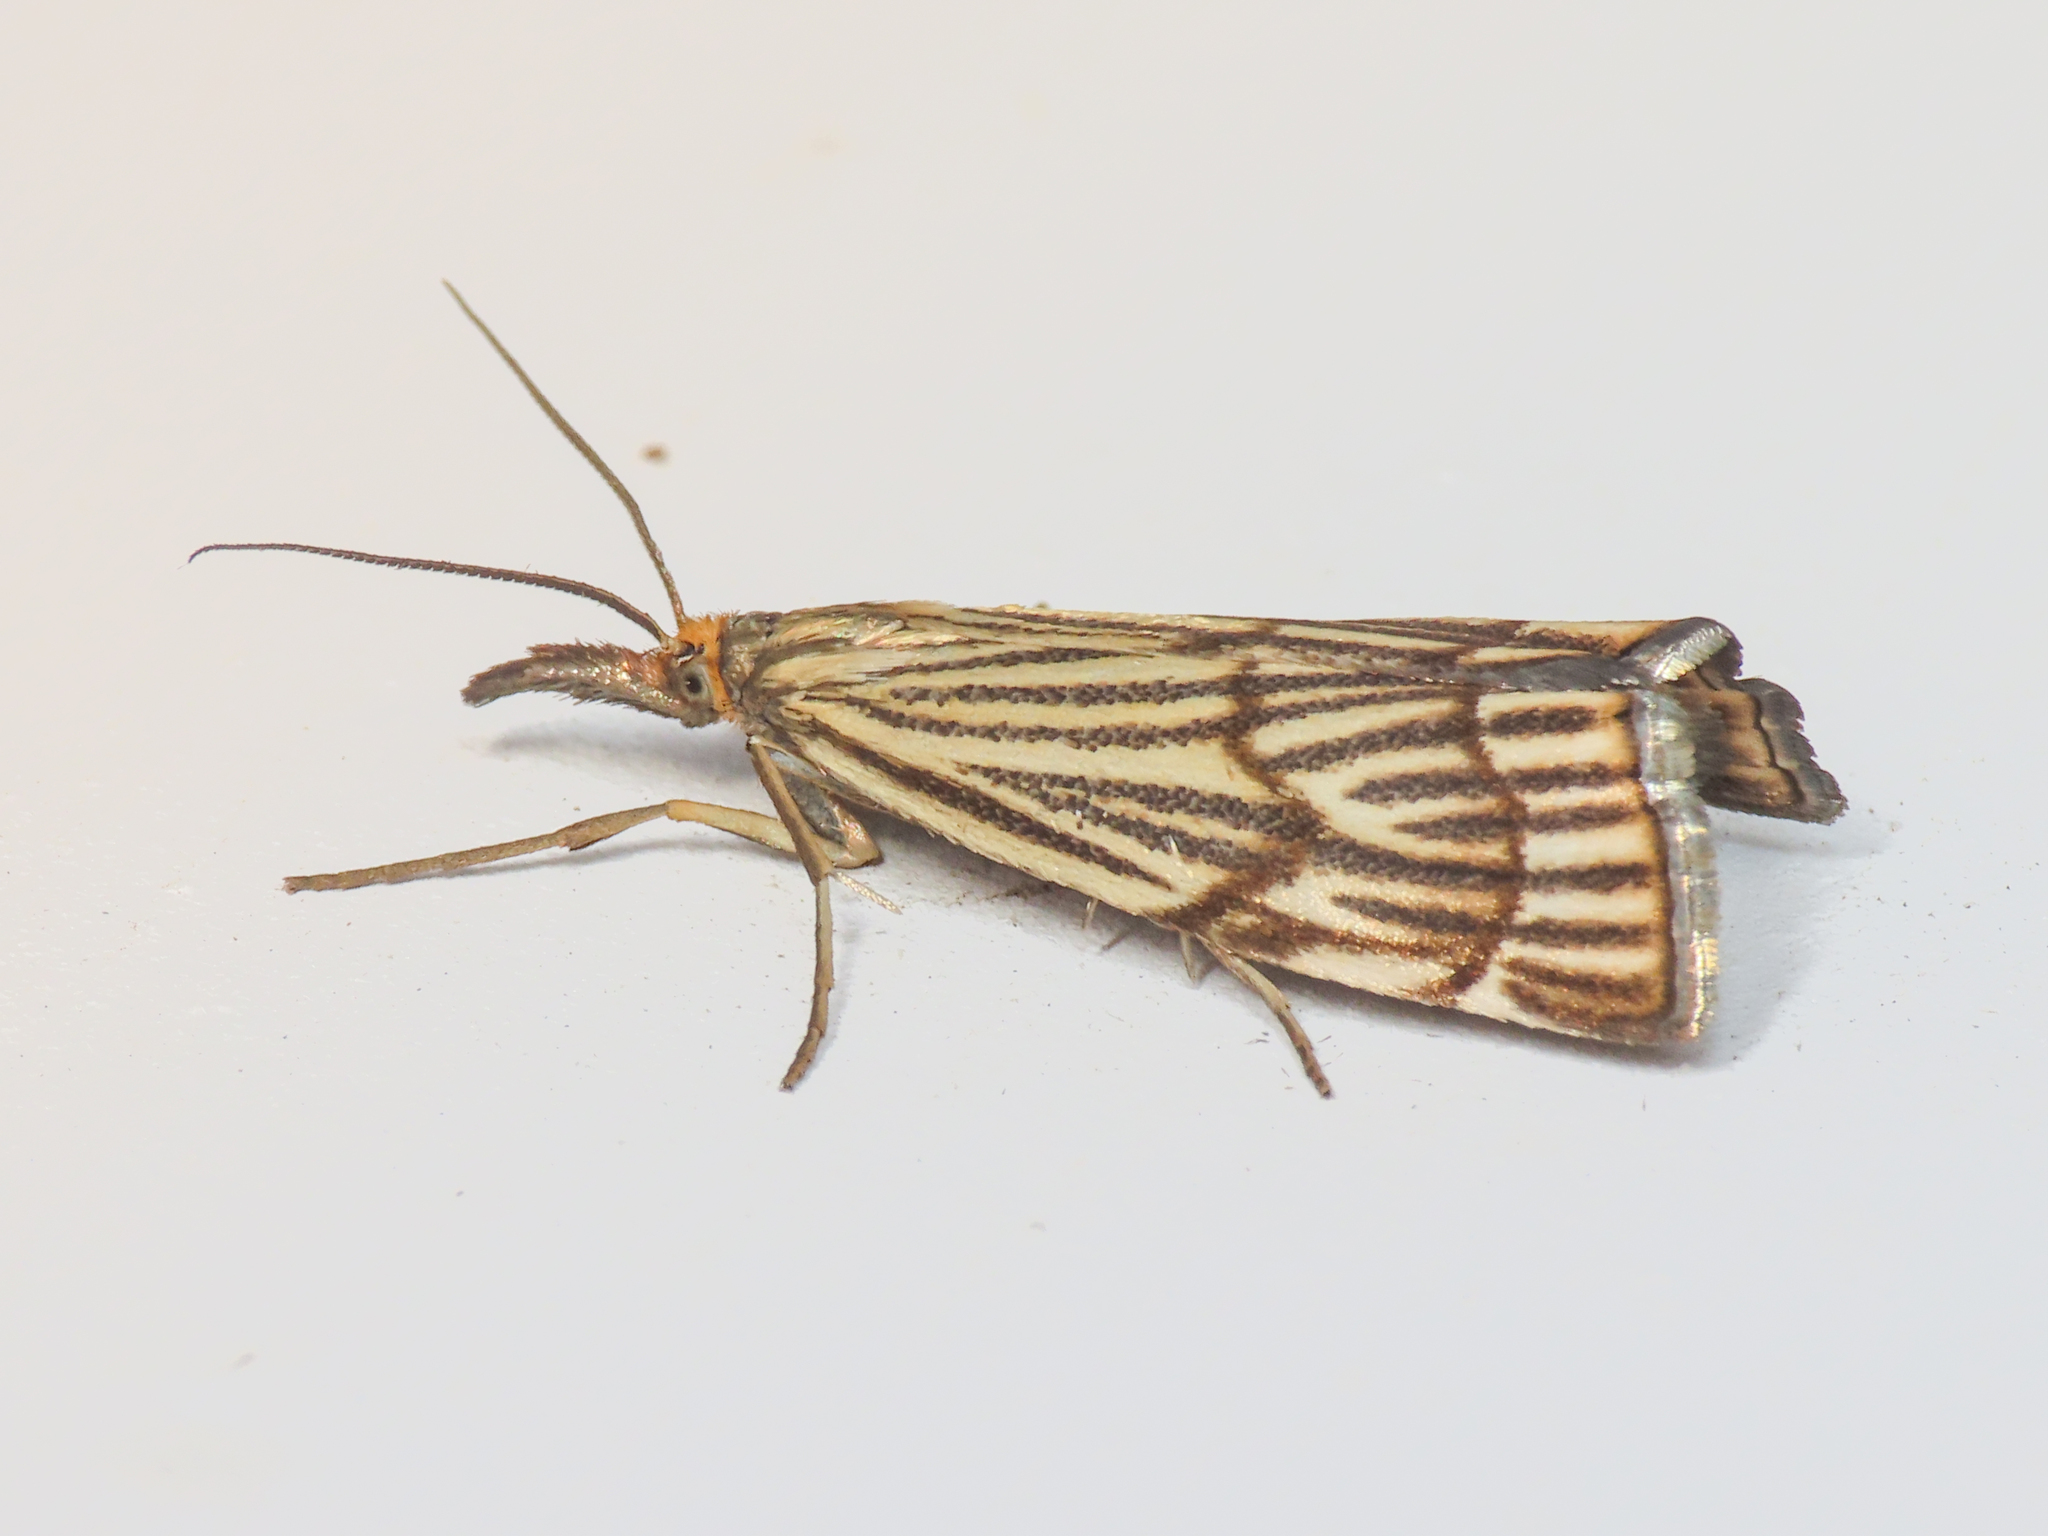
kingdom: Animalia
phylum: Arthropoda
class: Insecta
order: Lepidoptera
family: Crambidae
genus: Chrysocrambus
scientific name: Chrysocrambus Chrysocramboides craterellus
